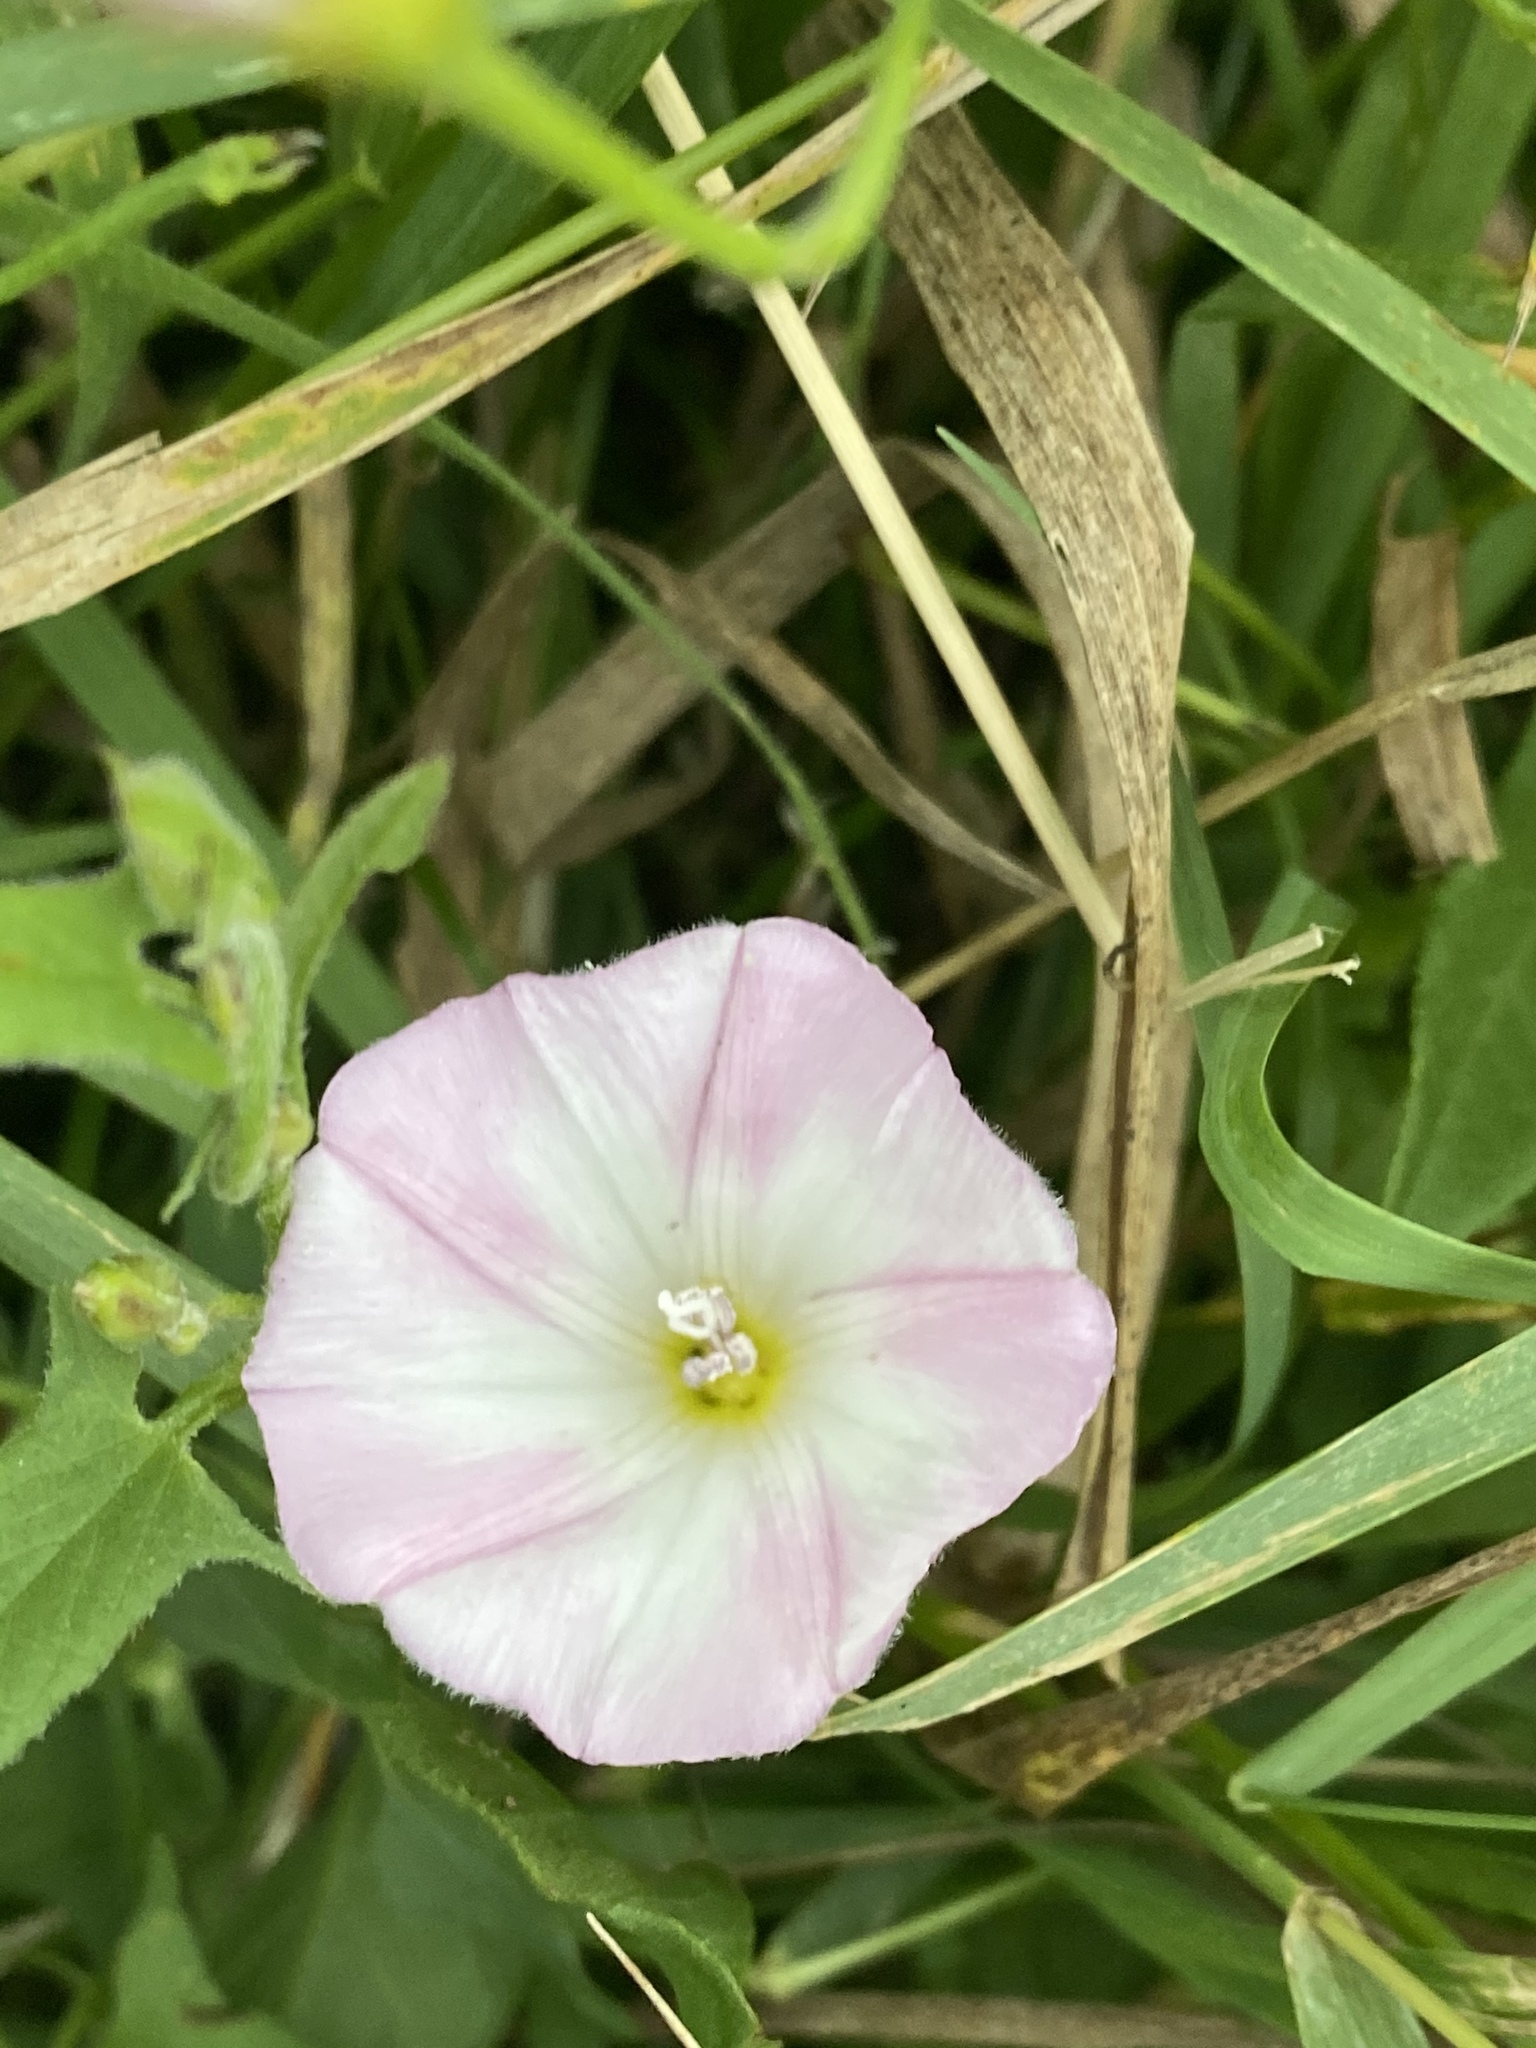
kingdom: Plantae
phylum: Tracheophyta
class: Magnoliopsida
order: Solanales
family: Convolvulaceae
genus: Convolvulus
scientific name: Convolvulus arvensis
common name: Field bindweed
